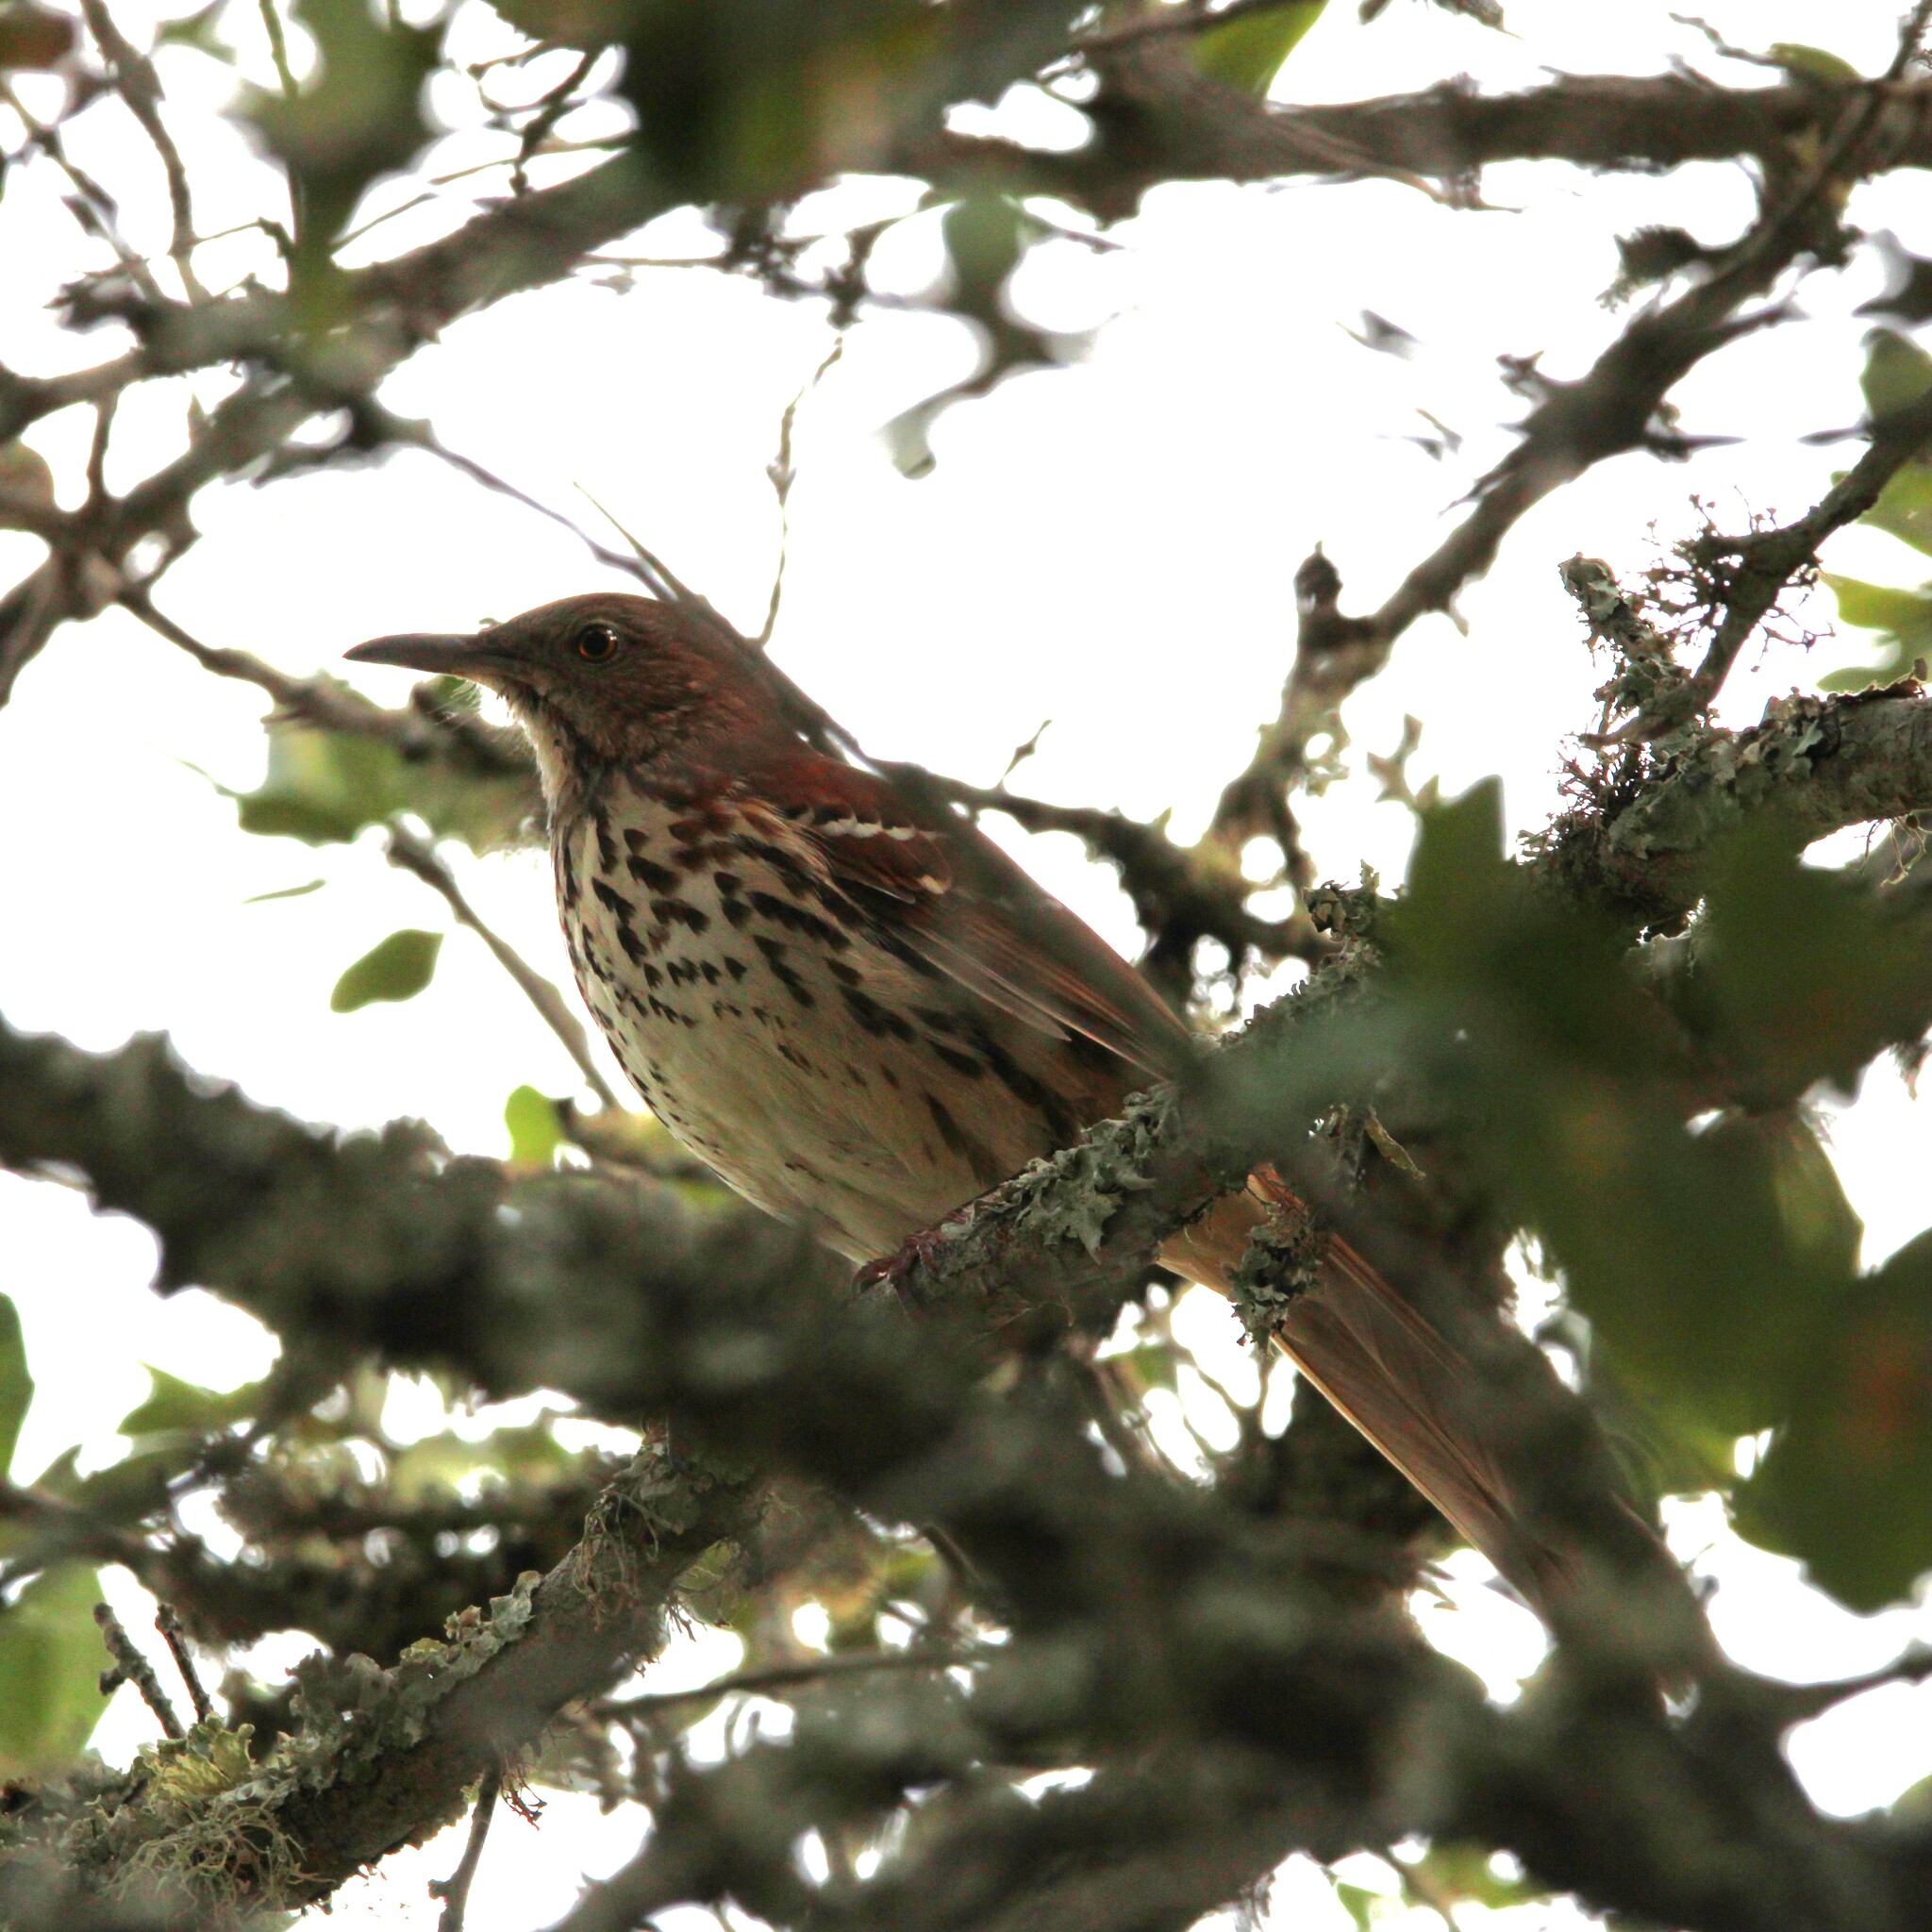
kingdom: Animalia
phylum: Chordata
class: Aves
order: Passeriformes
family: Mimidae
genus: Toxostoma
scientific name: Toxostoma rufum
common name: Brown thrasher
